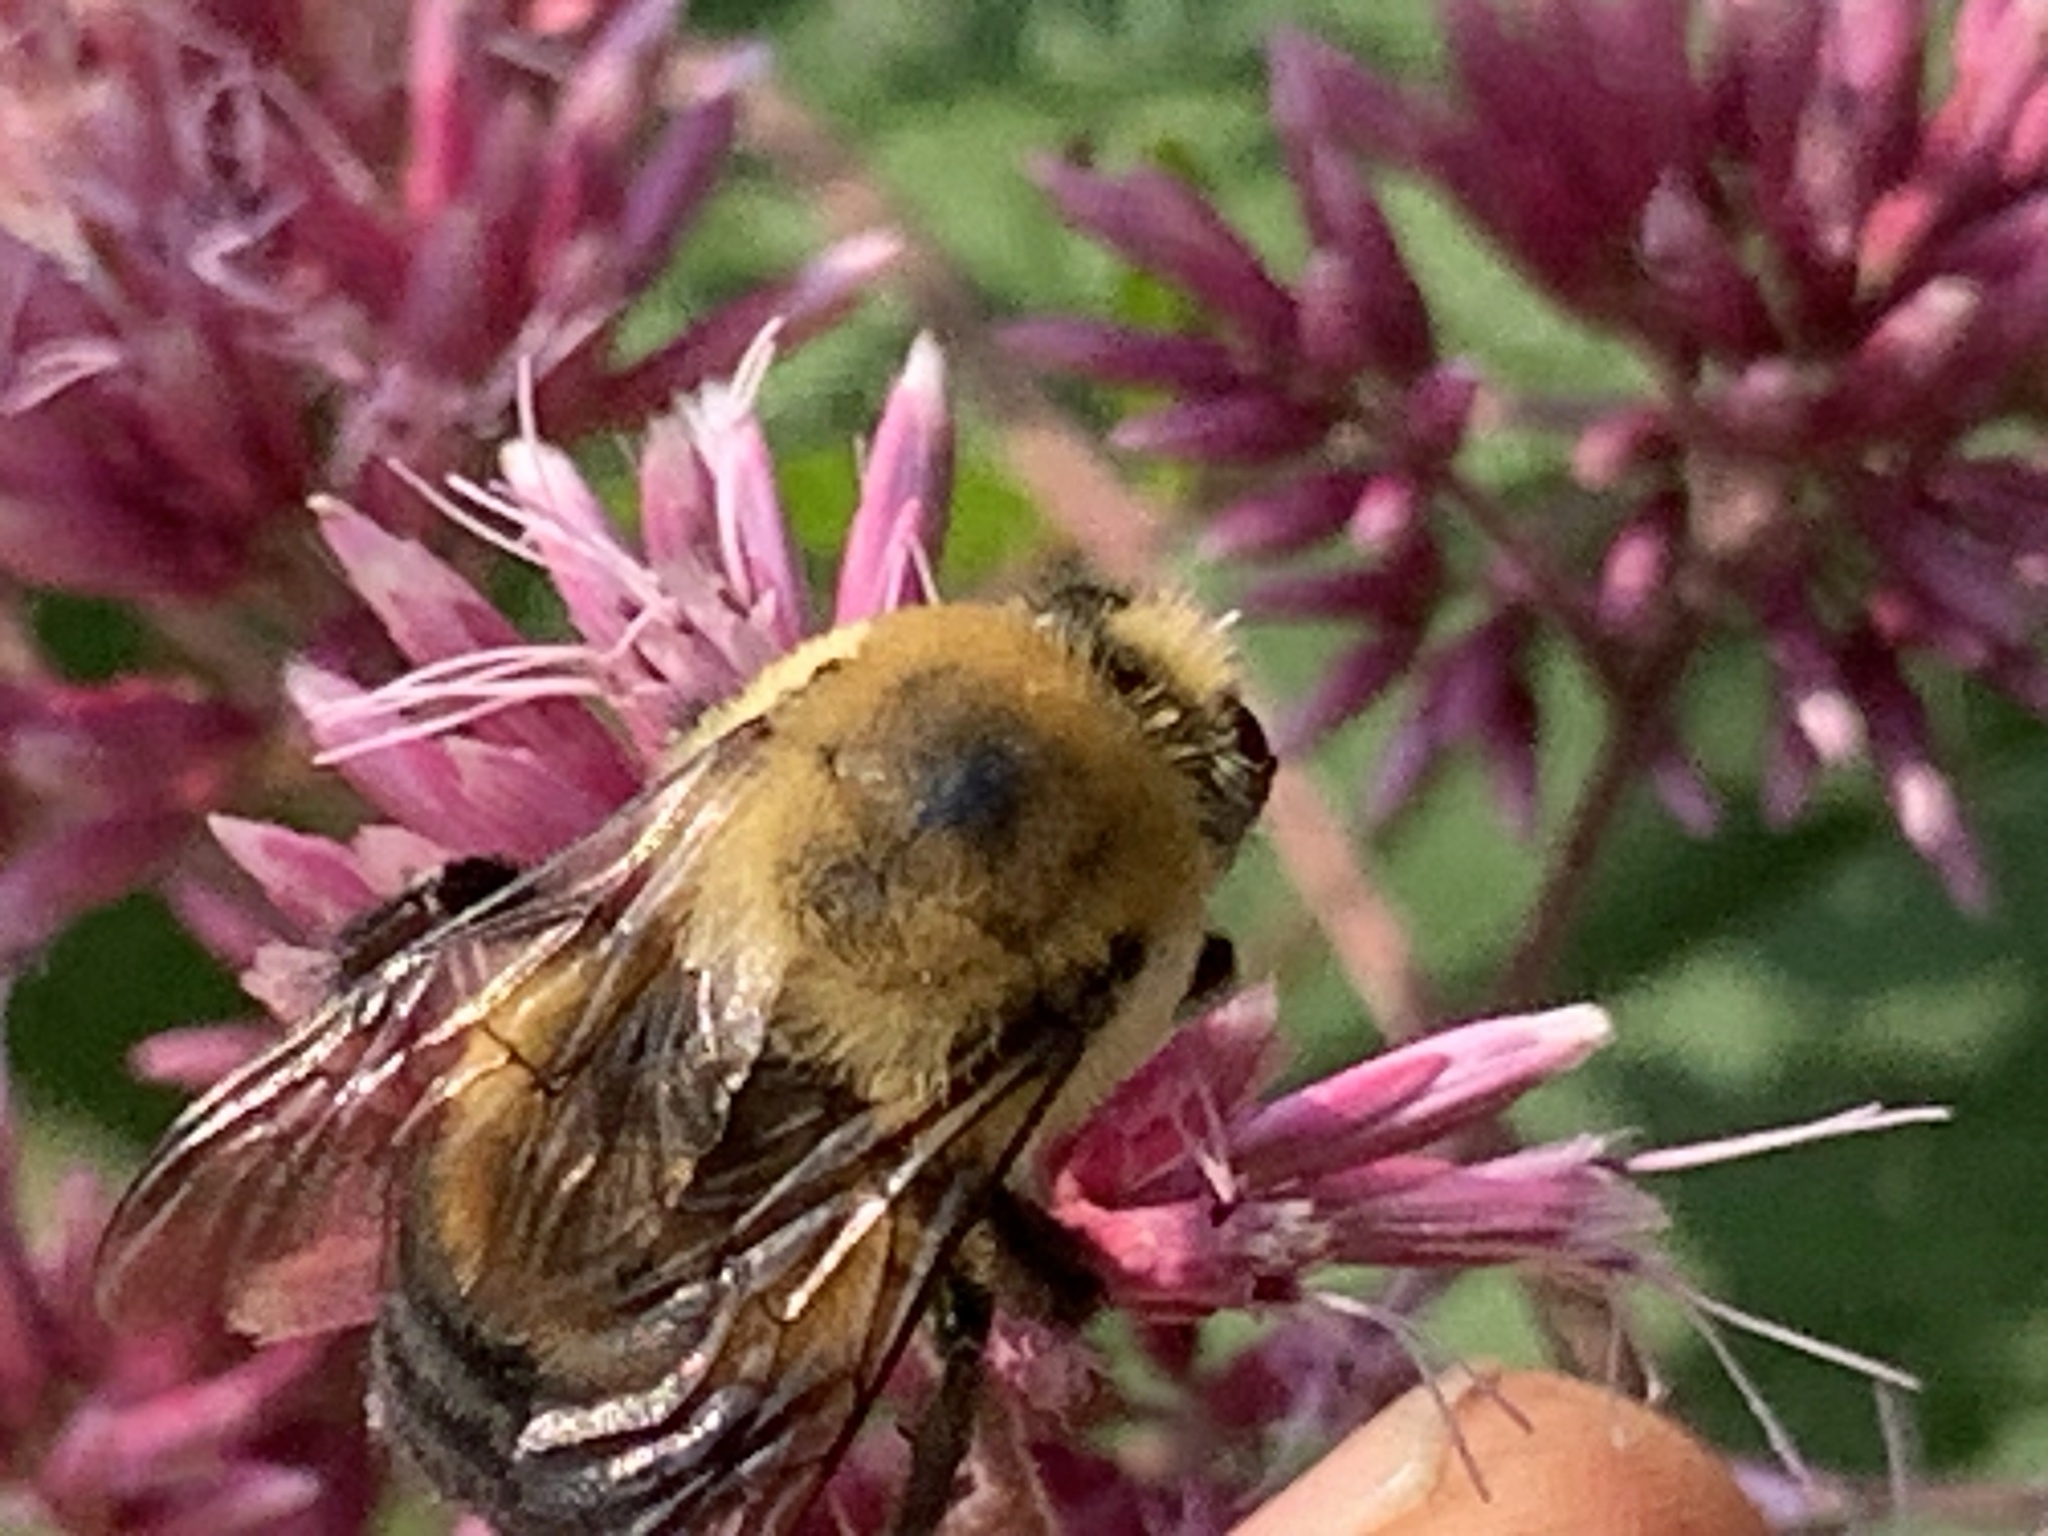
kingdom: Animalia
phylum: Arthropoda
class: Insecta
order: Hymenoptera
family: Apidae
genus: Bombus
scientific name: Bombus griseocollis
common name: Brown-belted bumble bee
